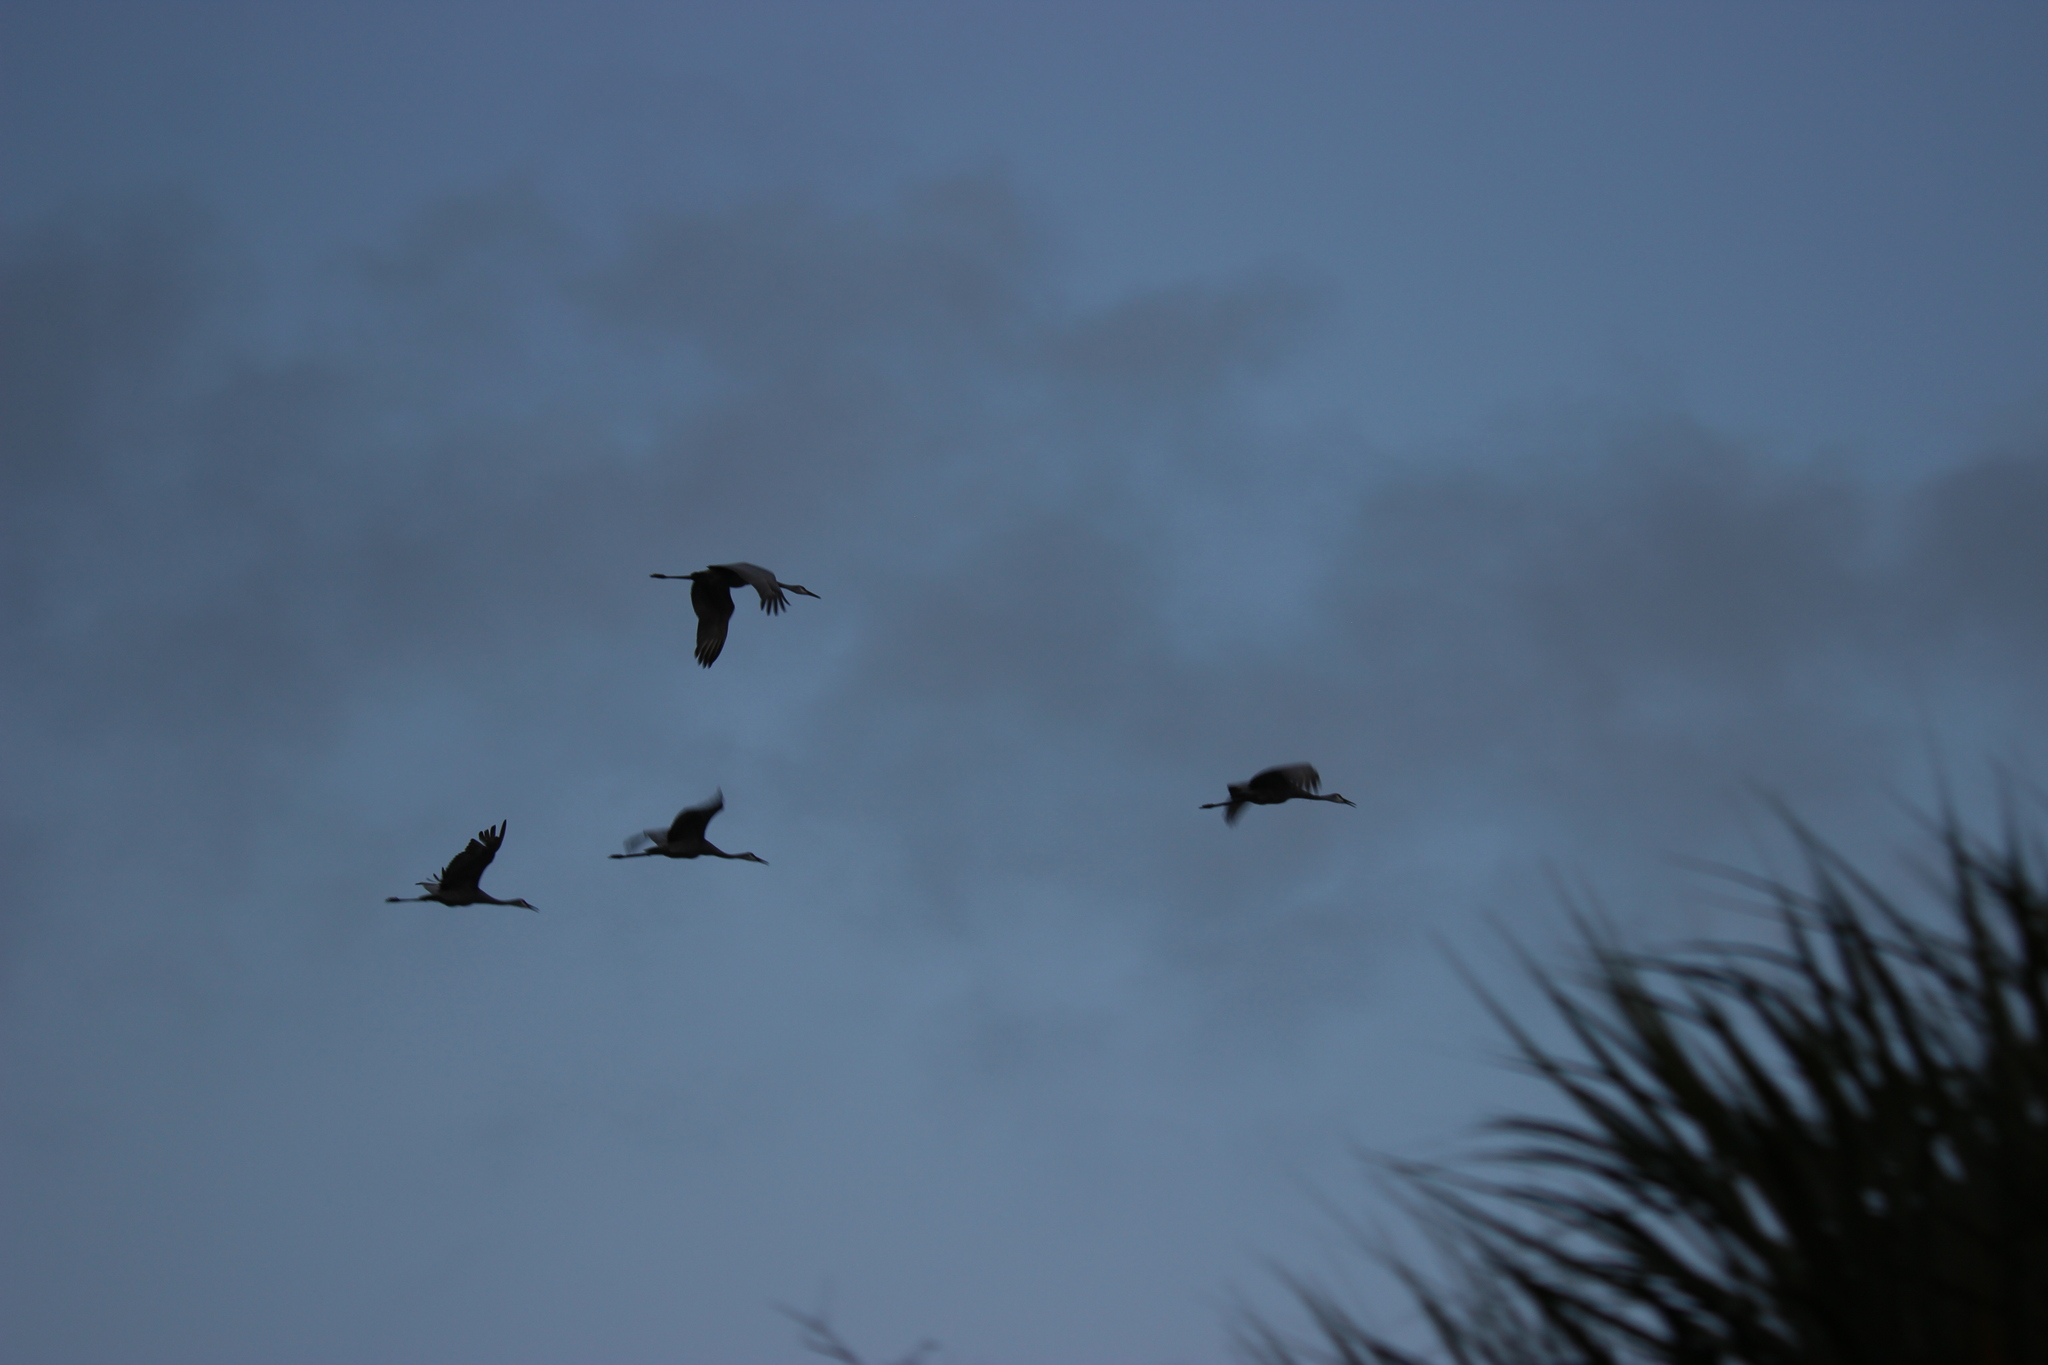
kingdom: Animalia
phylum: Chordata
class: Aves
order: Gruiformes
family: Gruidae
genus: Grus
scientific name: Grus canadensis
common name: Sandhill crane
